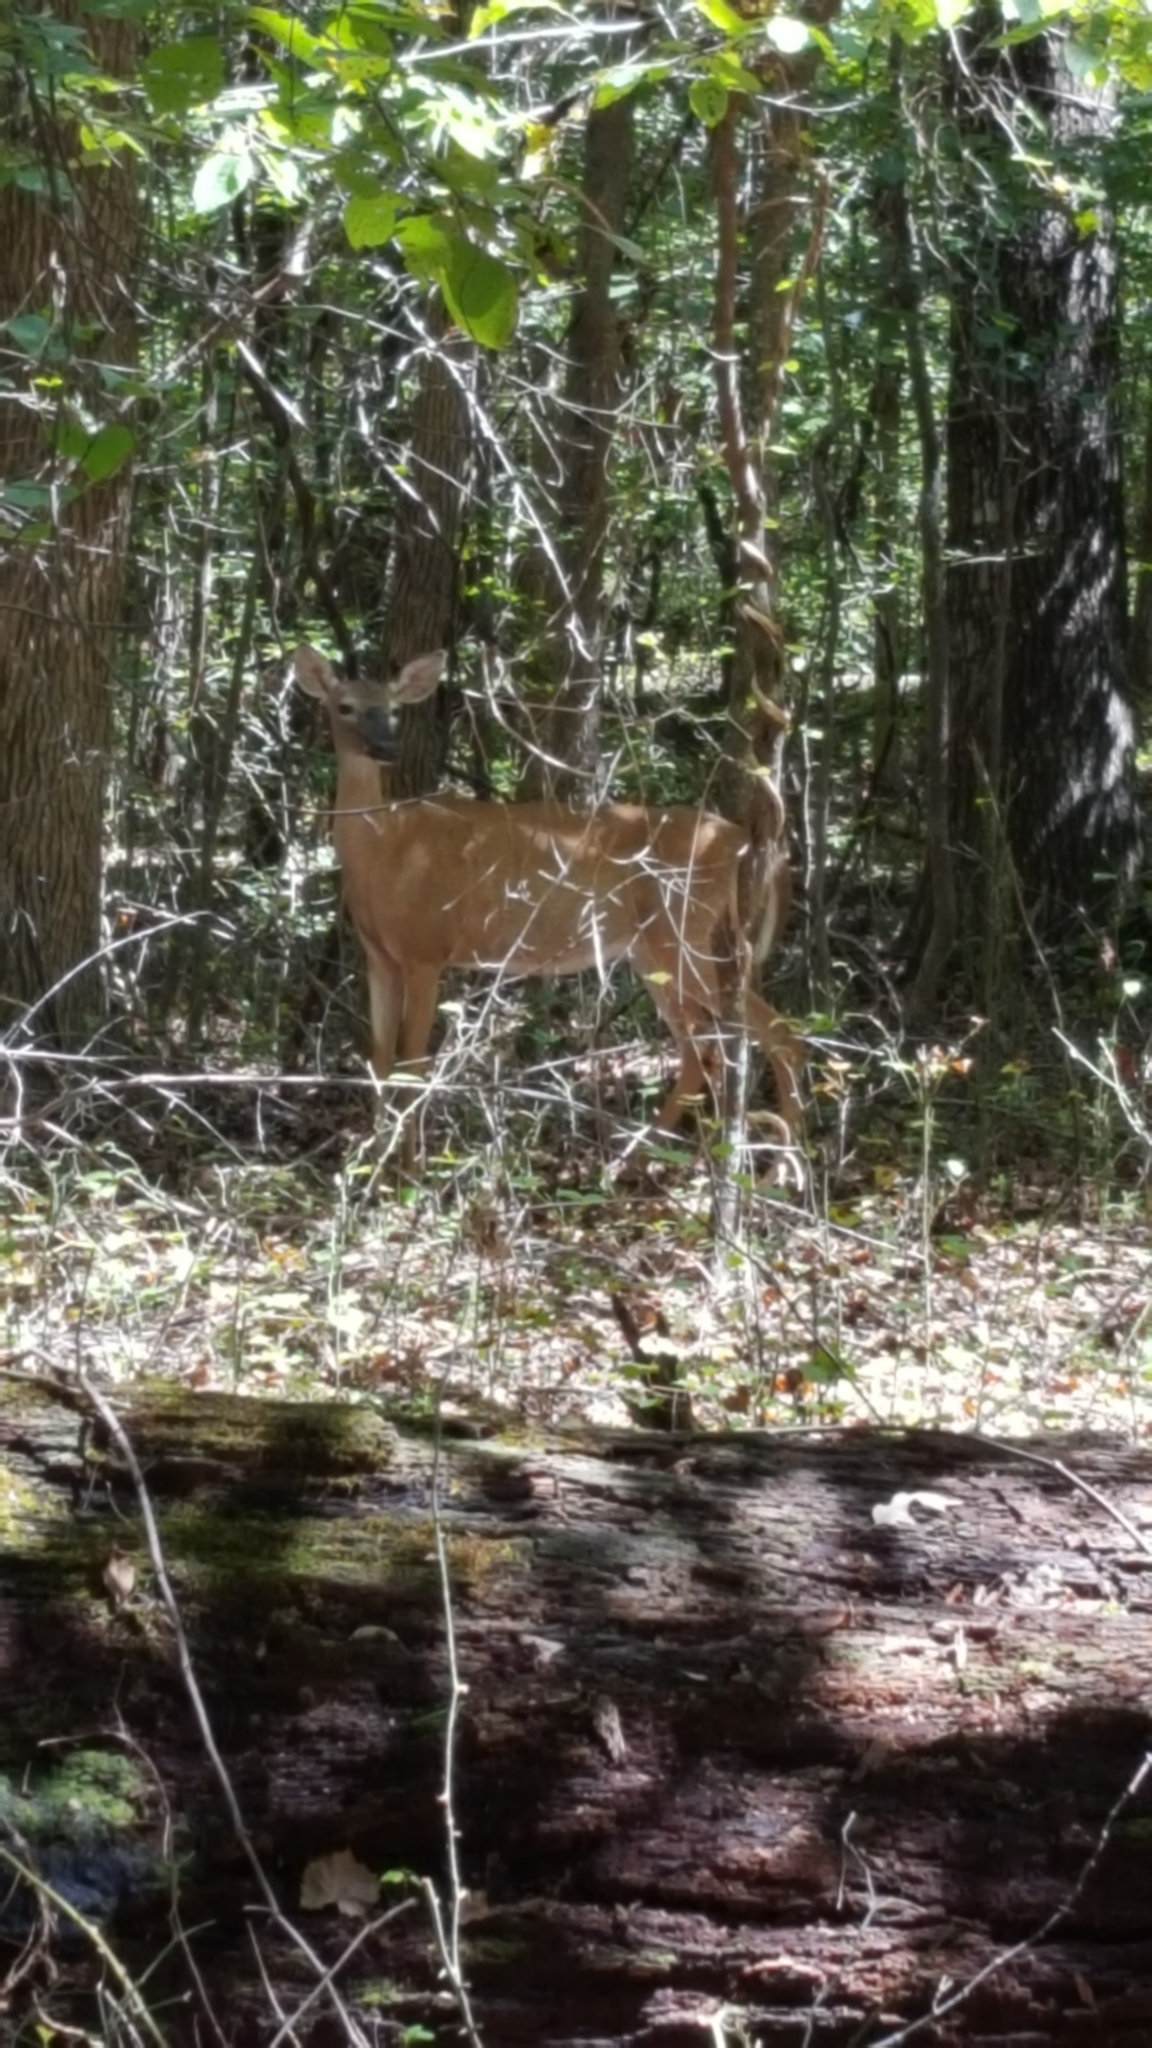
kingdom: Animalia
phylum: Chordata
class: Mammalia
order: Artiodactyla
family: Cervidae
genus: Odocoileus
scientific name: Odocoileus virginianus
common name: White-tailed deer
